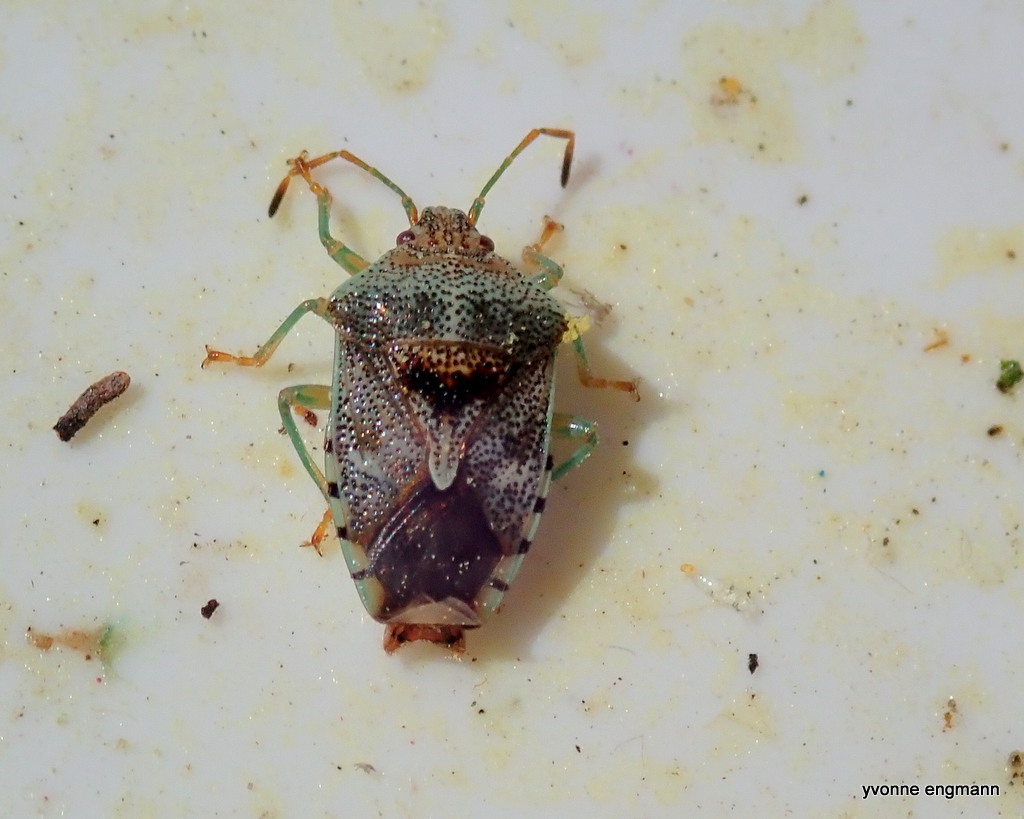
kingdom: Animalia
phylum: Arthropoda
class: Insecta
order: Hemiptera
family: Acanthosomatidae
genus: Elasmucha
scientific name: Elasmucha grisea
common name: Parent bug
